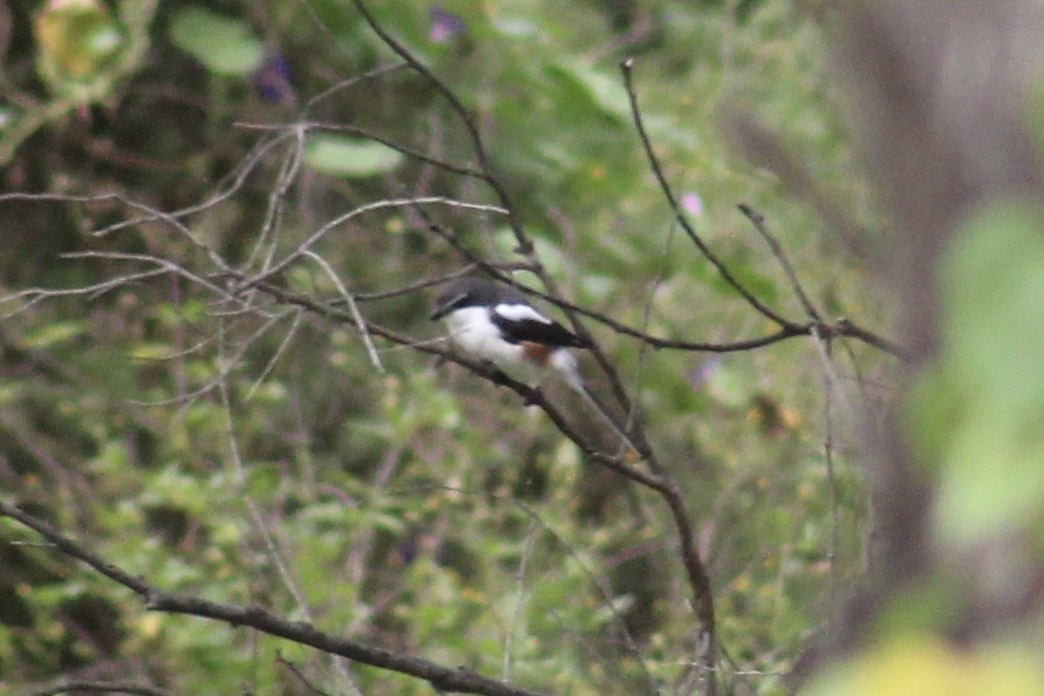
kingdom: Animalia
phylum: Chordata
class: Aves
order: Passeriformes
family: Laniidae
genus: Lanius
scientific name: Lanius collaris
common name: Southern fiscal
